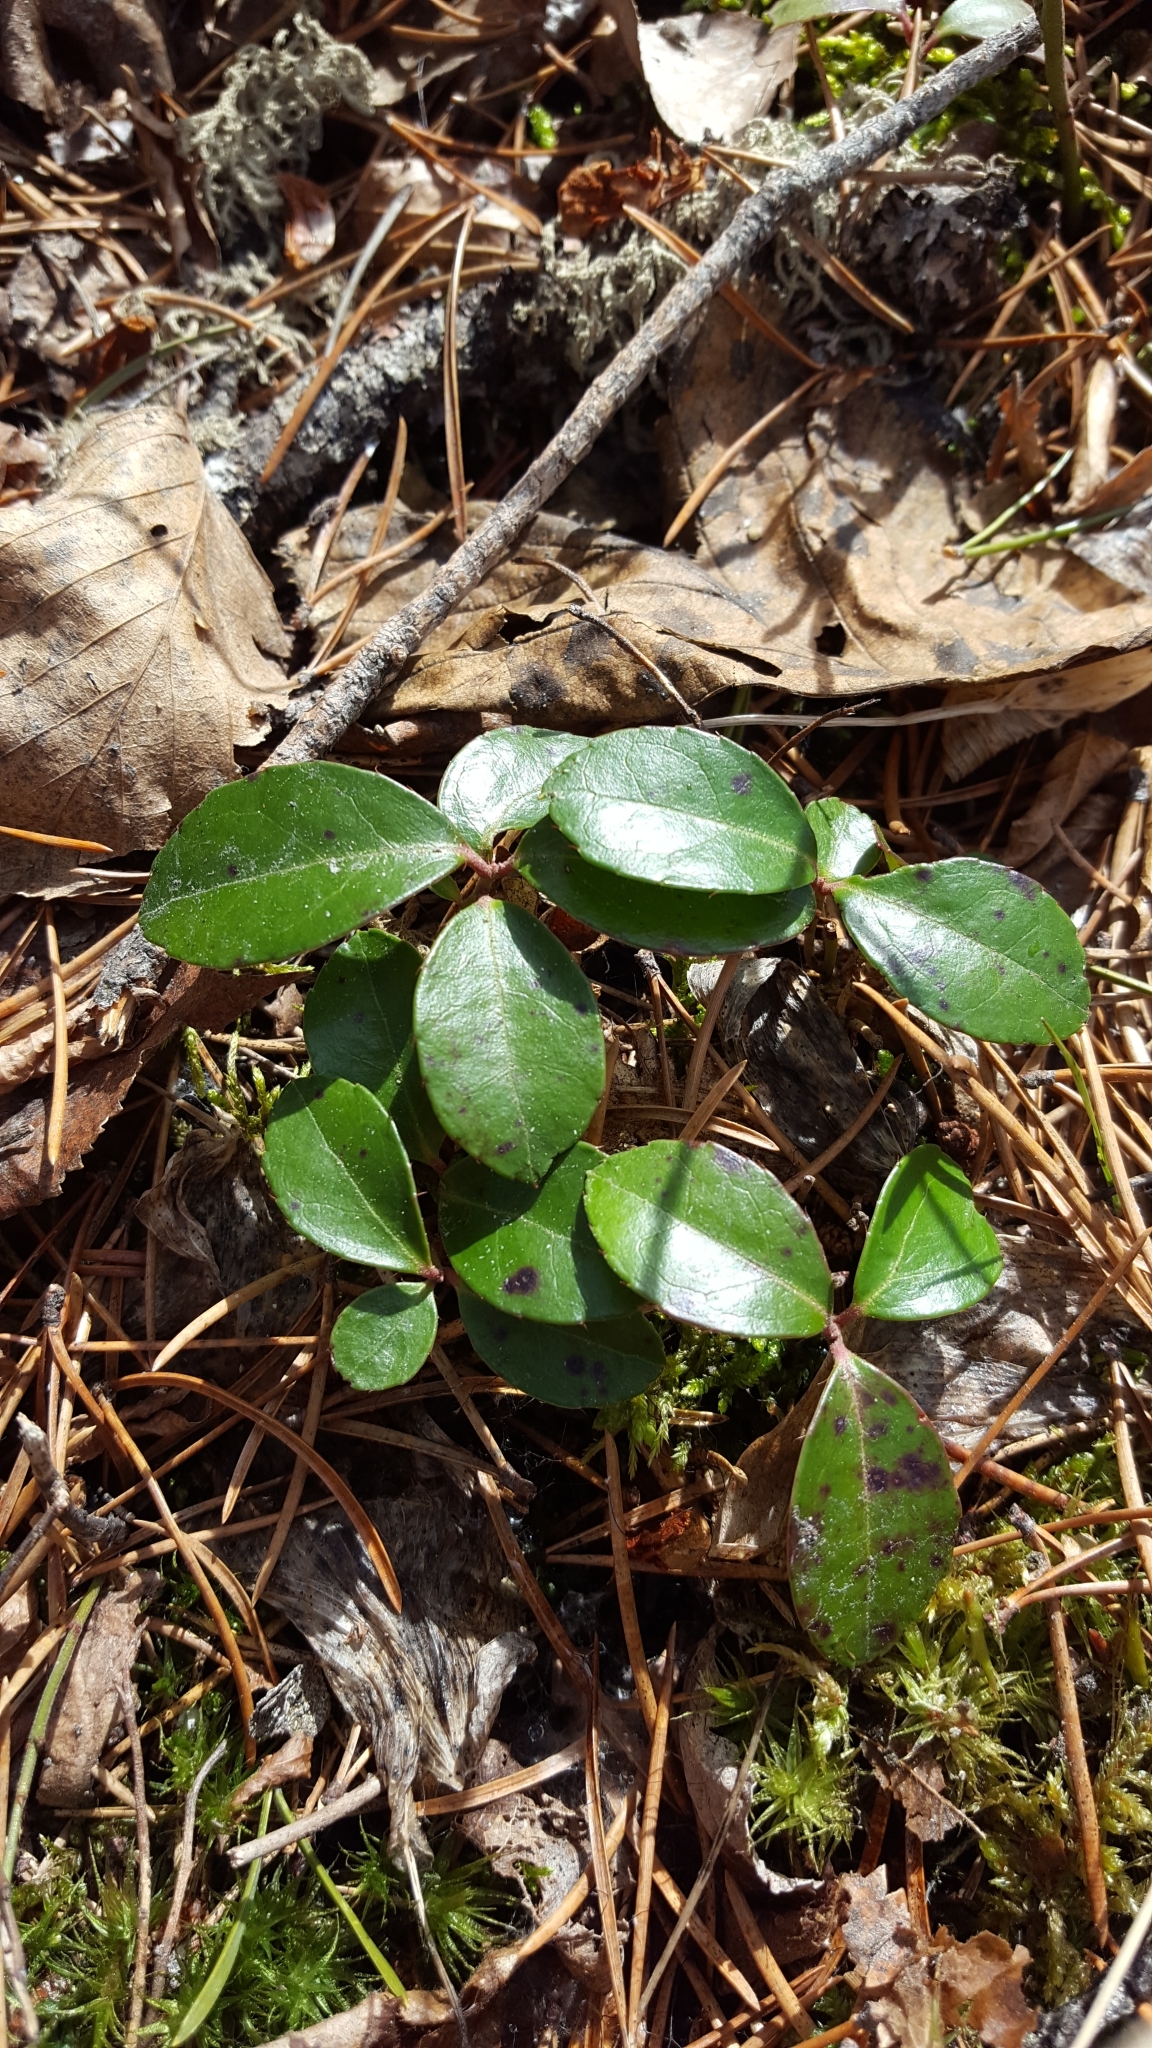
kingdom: Plantae
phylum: Tracheophyta
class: Magnoliopsida
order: Ericales
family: Ericaceae
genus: Gaultheria
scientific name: Gaultheria procumbens
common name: Checkerberry
